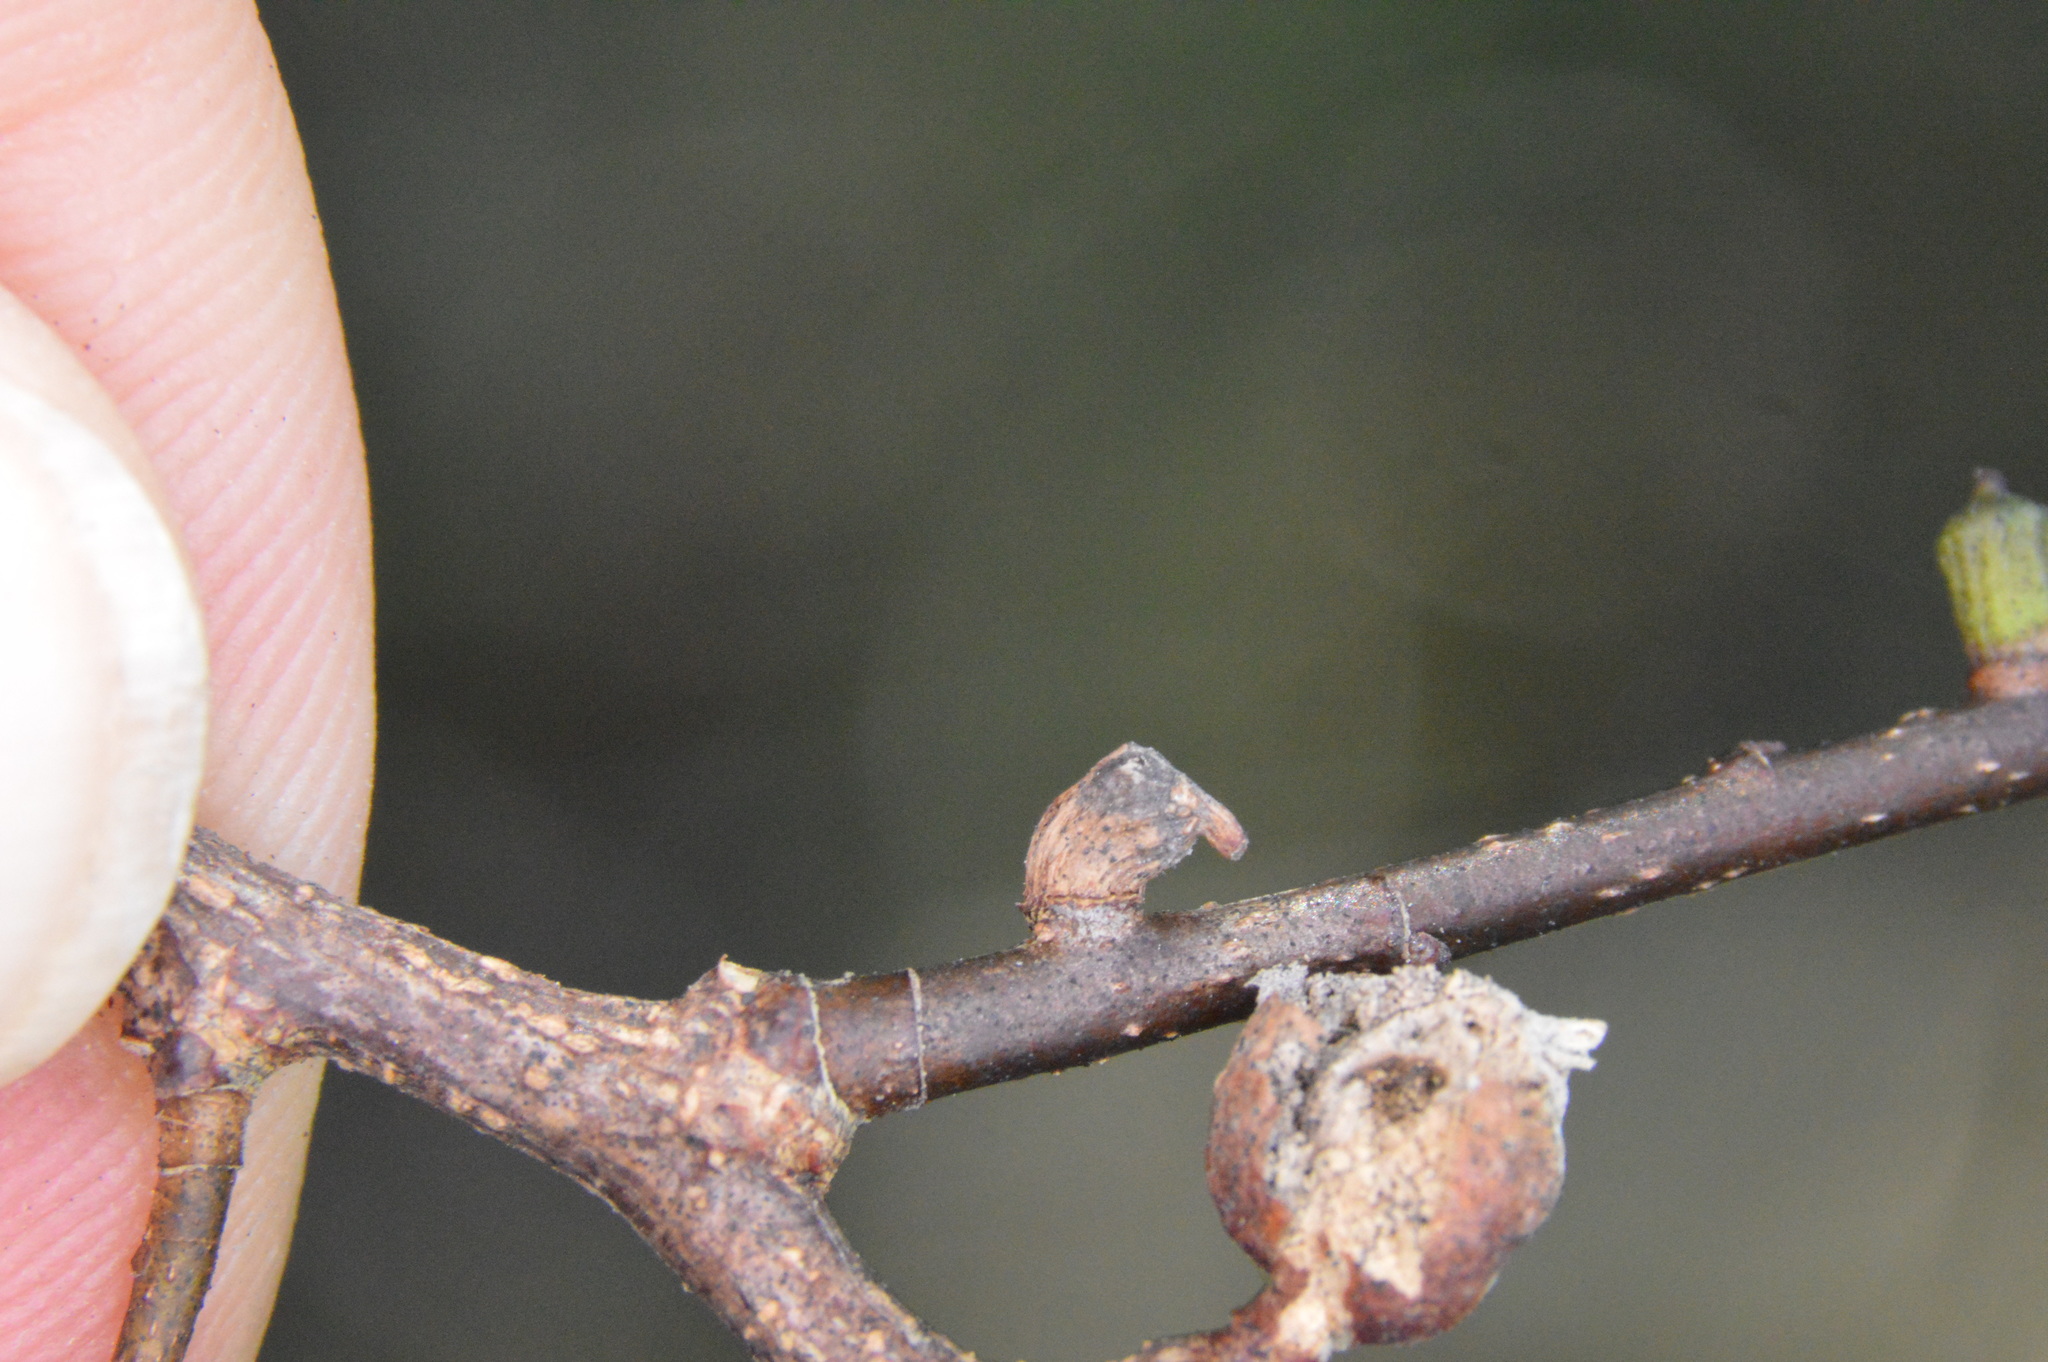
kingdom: Animalia
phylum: Arthropoda
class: Insecta
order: Diptera
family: Cecidomyiidae
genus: Celticecis
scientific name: Celticecis ramicola
